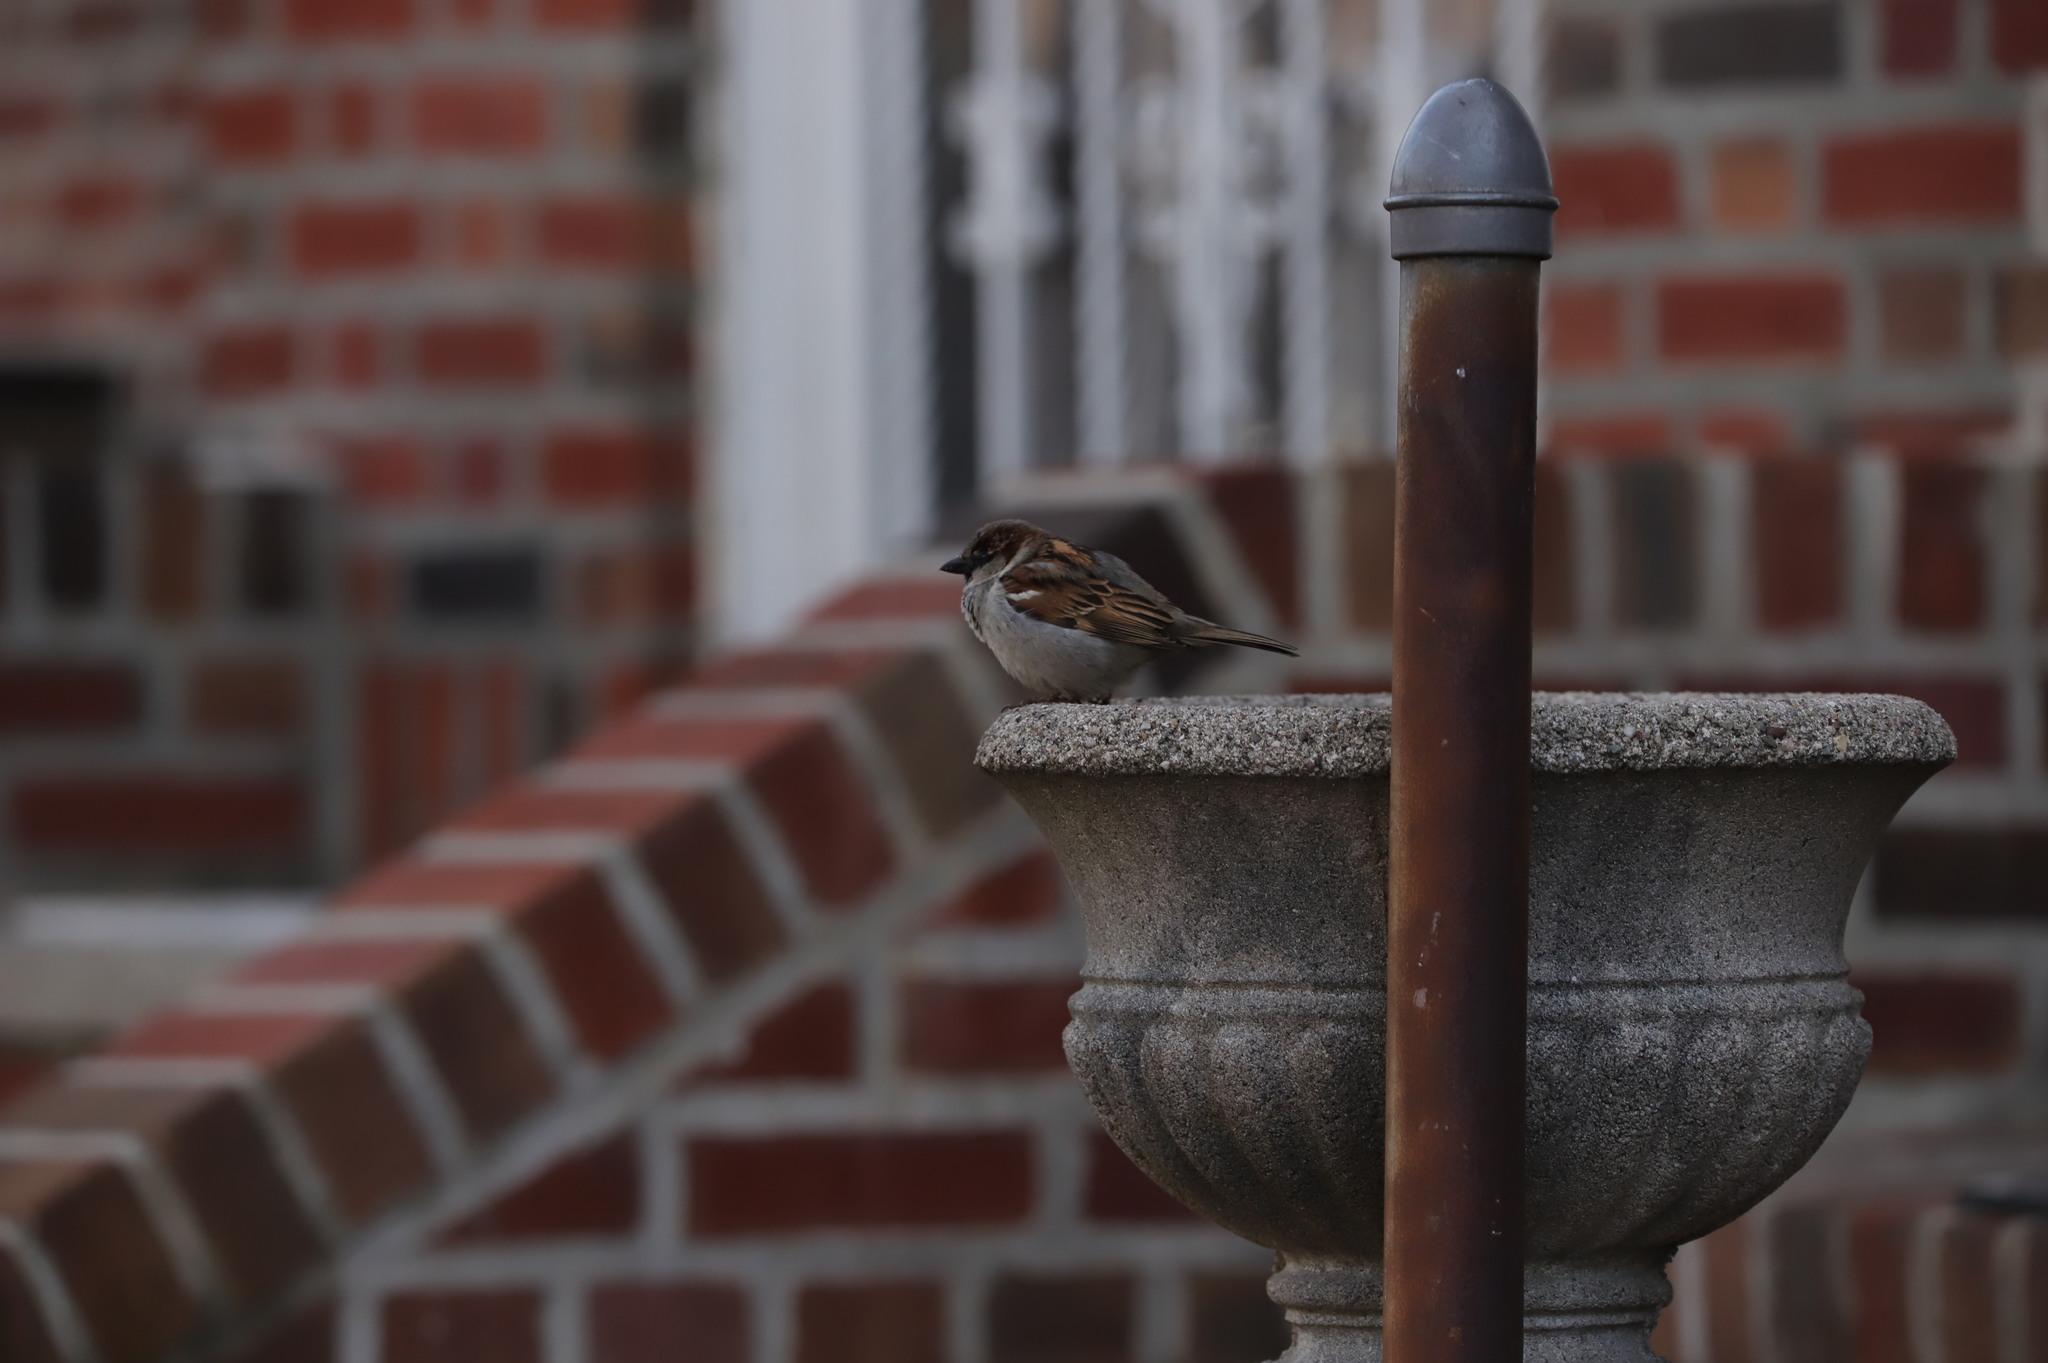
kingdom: Animalia
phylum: Chordata
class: Aves
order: Passeriformes
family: Passeridae
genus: Passer
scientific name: Passer domesticus
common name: House sparrow
